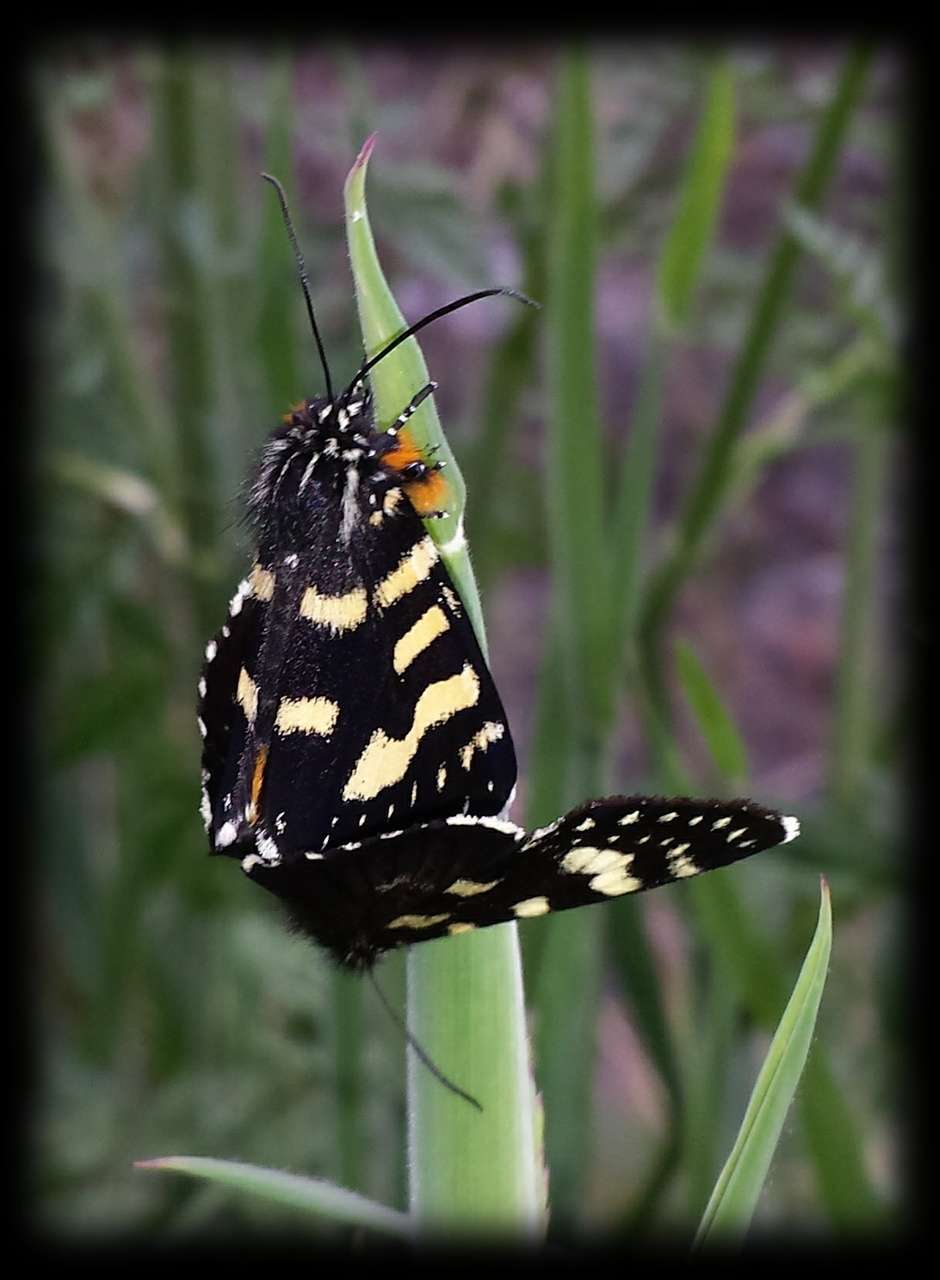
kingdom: Animalia
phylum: Arthropoda
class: Insecta
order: Lepidoptera
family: Noctuidae
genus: Phalaenoides
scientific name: Phalaenoides tristifica
